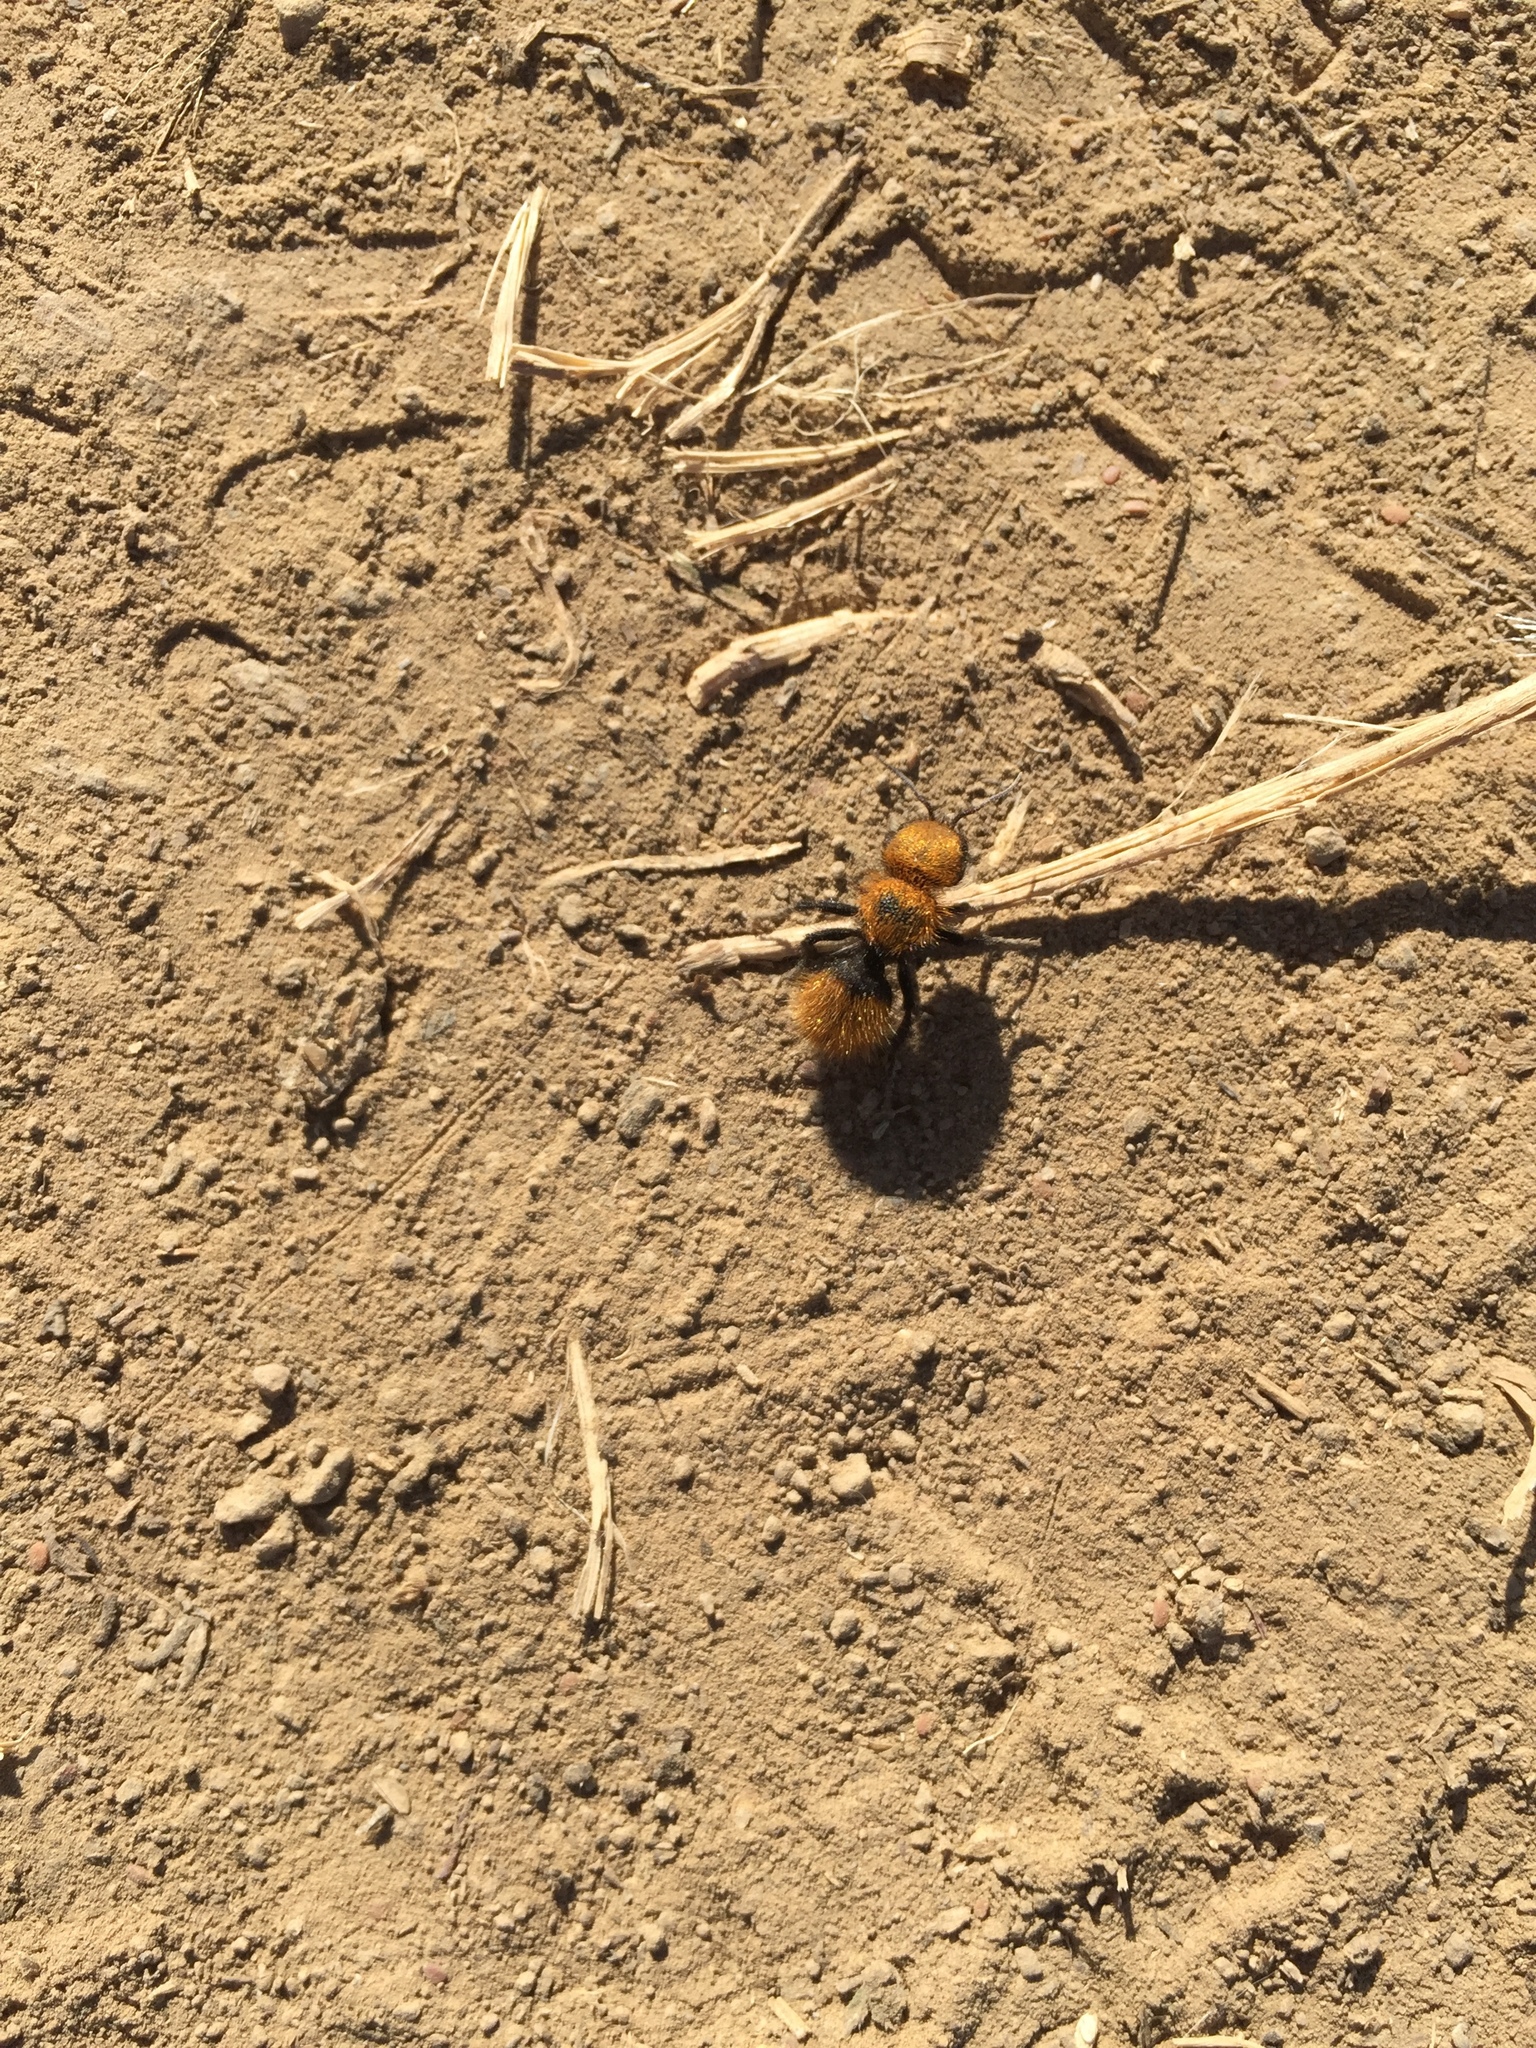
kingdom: Animalia
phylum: Arthropoda
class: Insecta
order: Hymenoptera
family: Mutillidae
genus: Dasymutilla
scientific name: Dasymutilla
